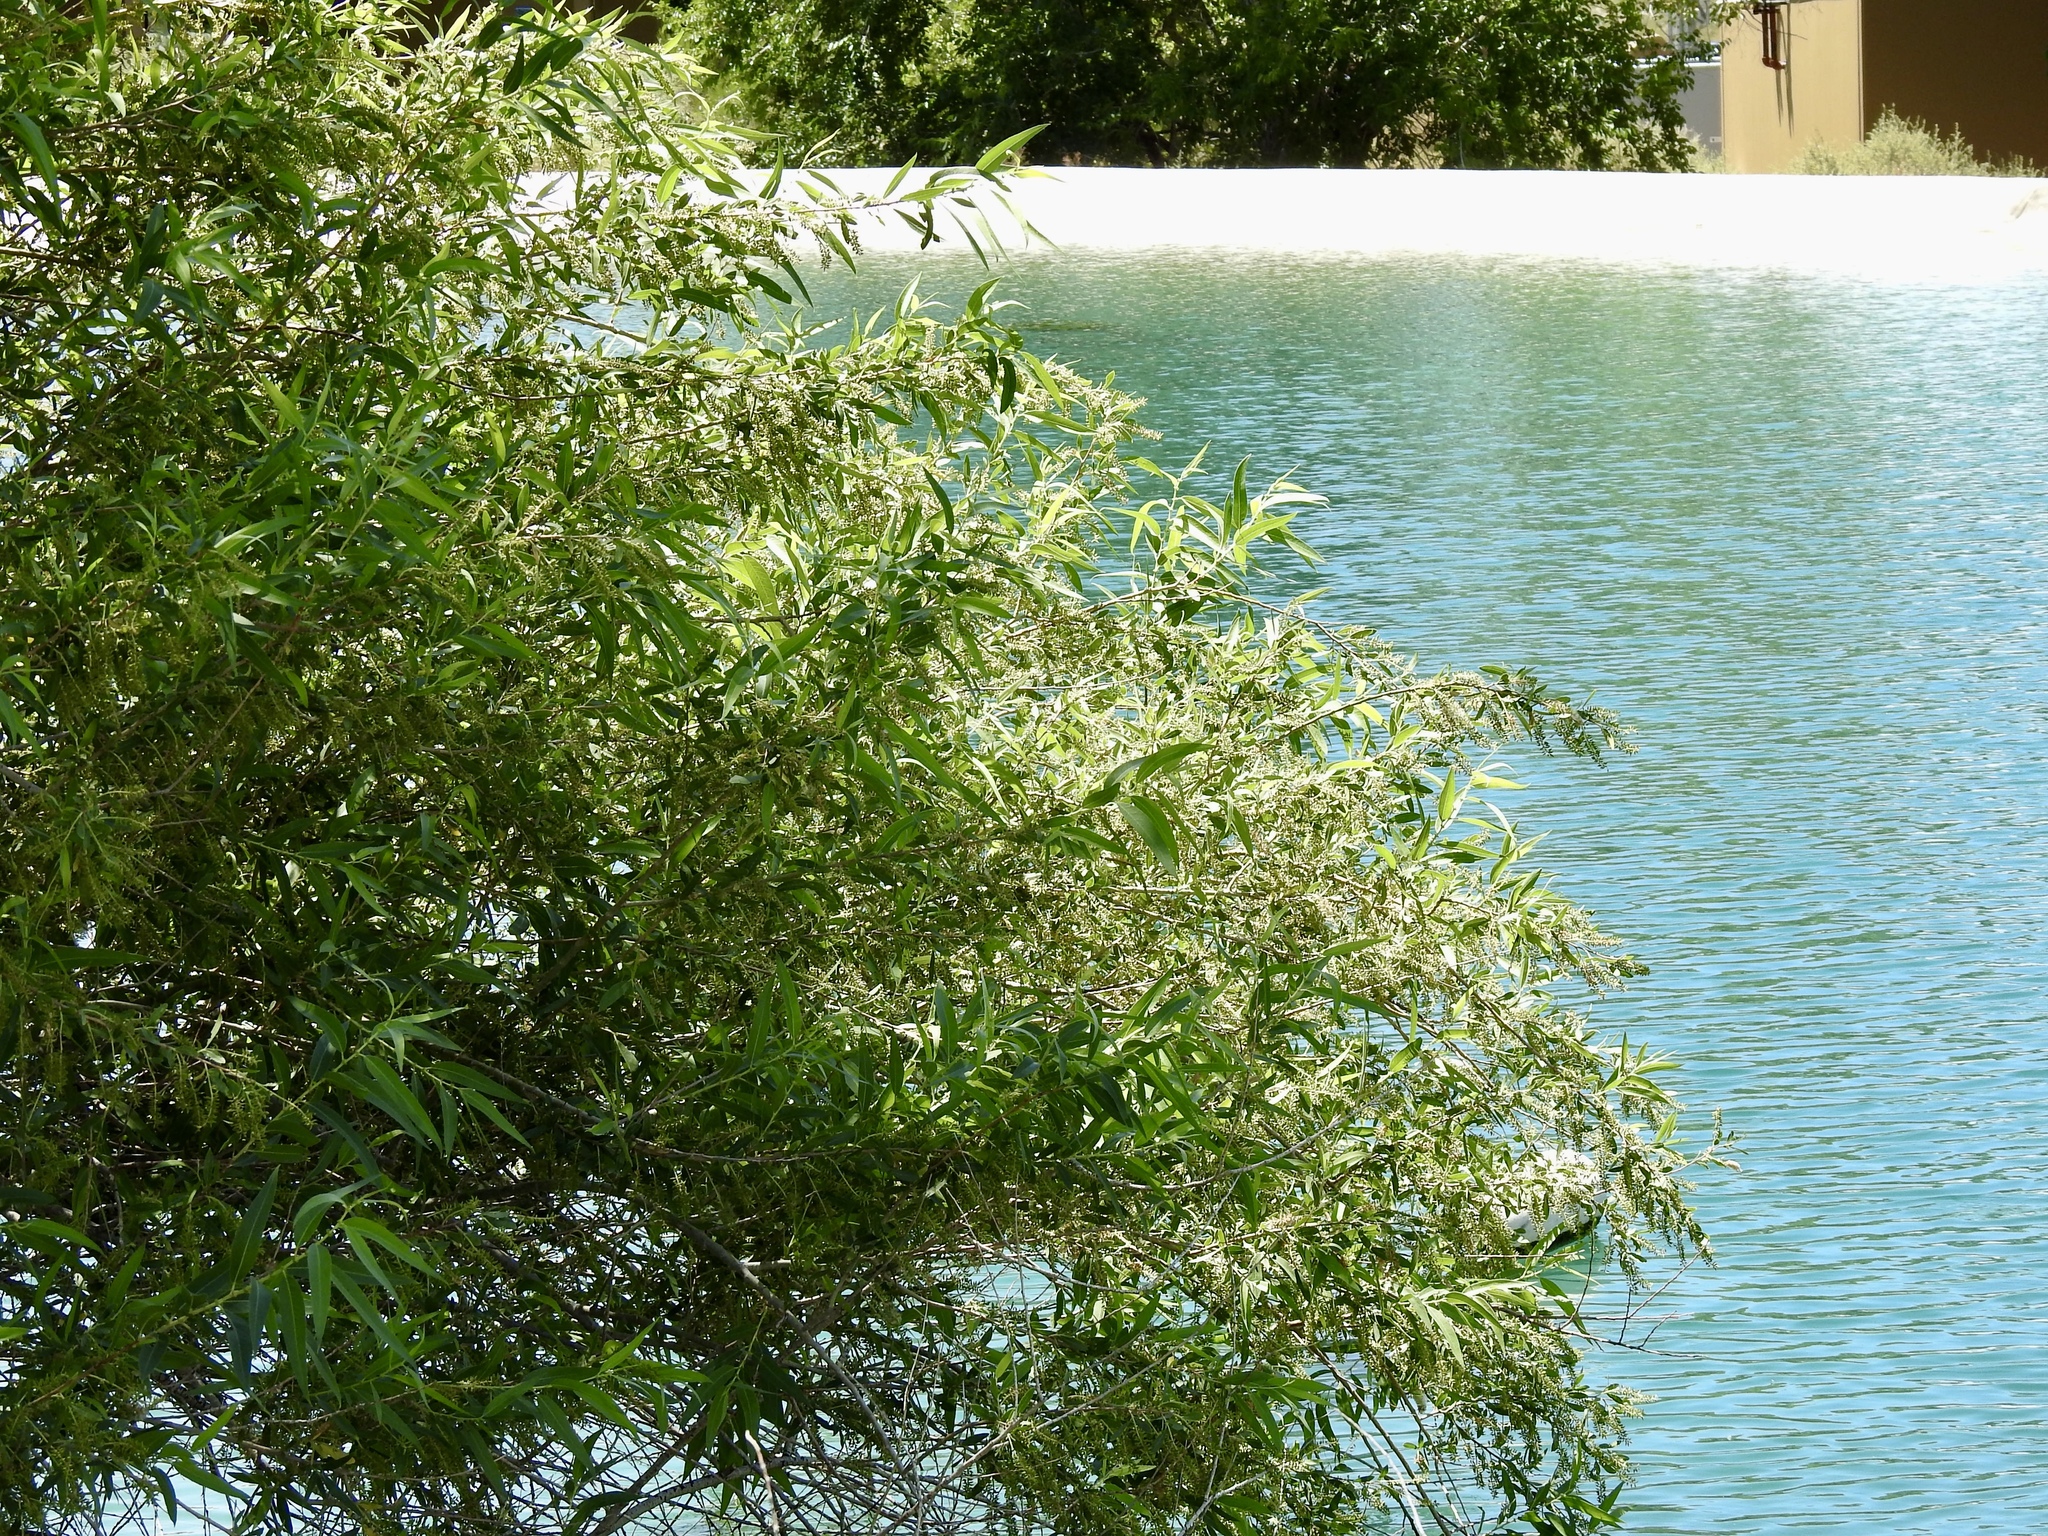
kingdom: Plantae
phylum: Tracheophyta
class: Magnoliopsida
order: Malpighiales
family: Salicaceae
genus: Salix
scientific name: Salix gooddingii
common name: Goodding's willow
